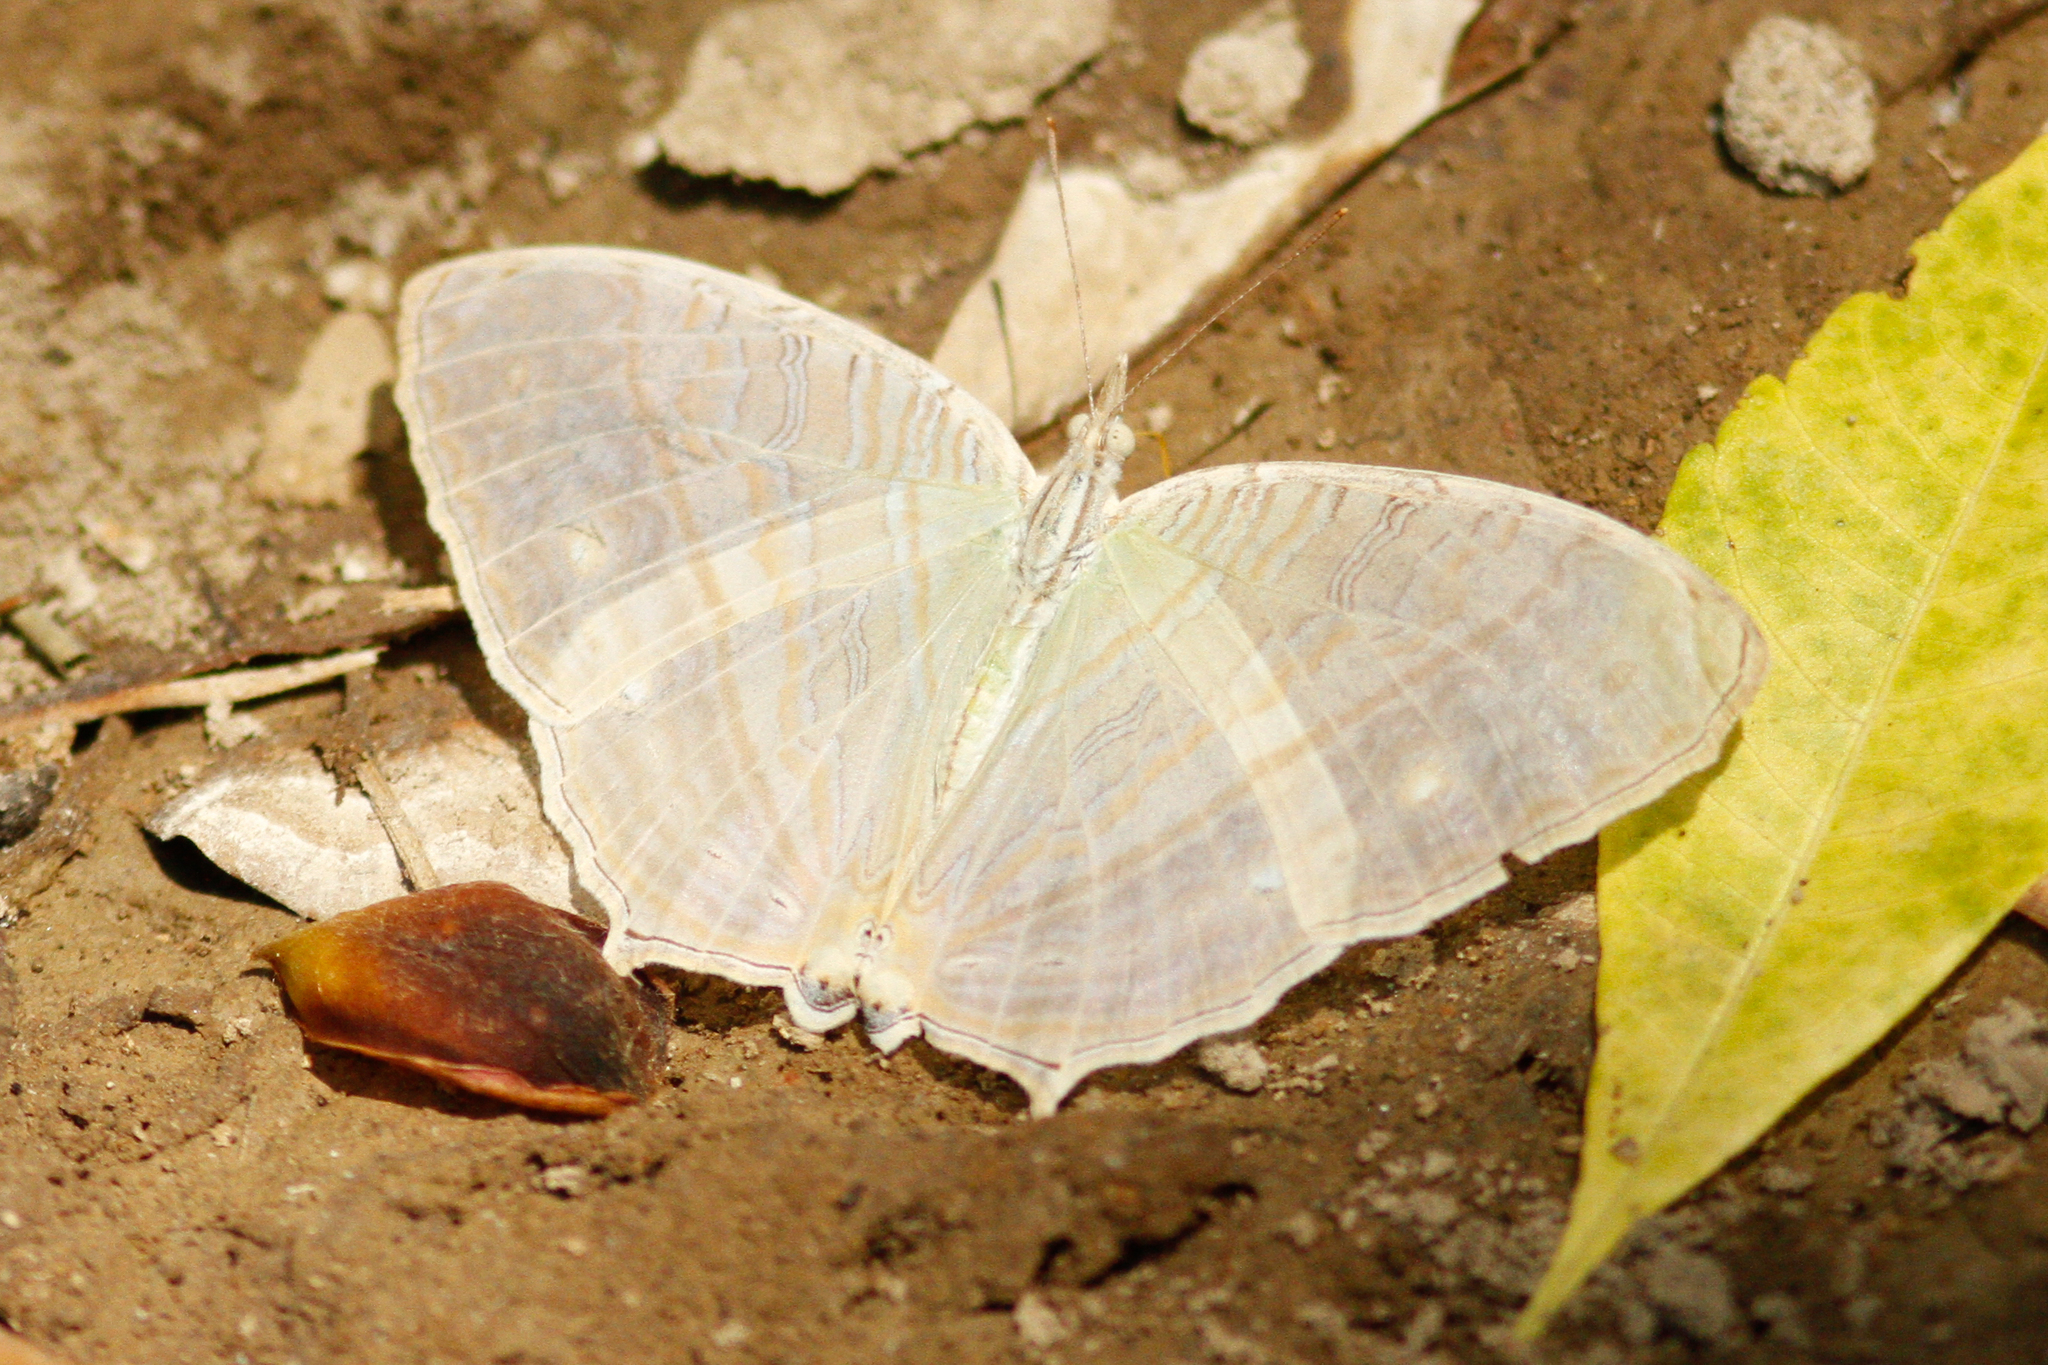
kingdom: Animalia
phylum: Arthropoda
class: Insecta
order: Lepidoptera
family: Nymphalidae
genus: Cyrestis
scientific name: Cyrestis cocles
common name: Marbled map
